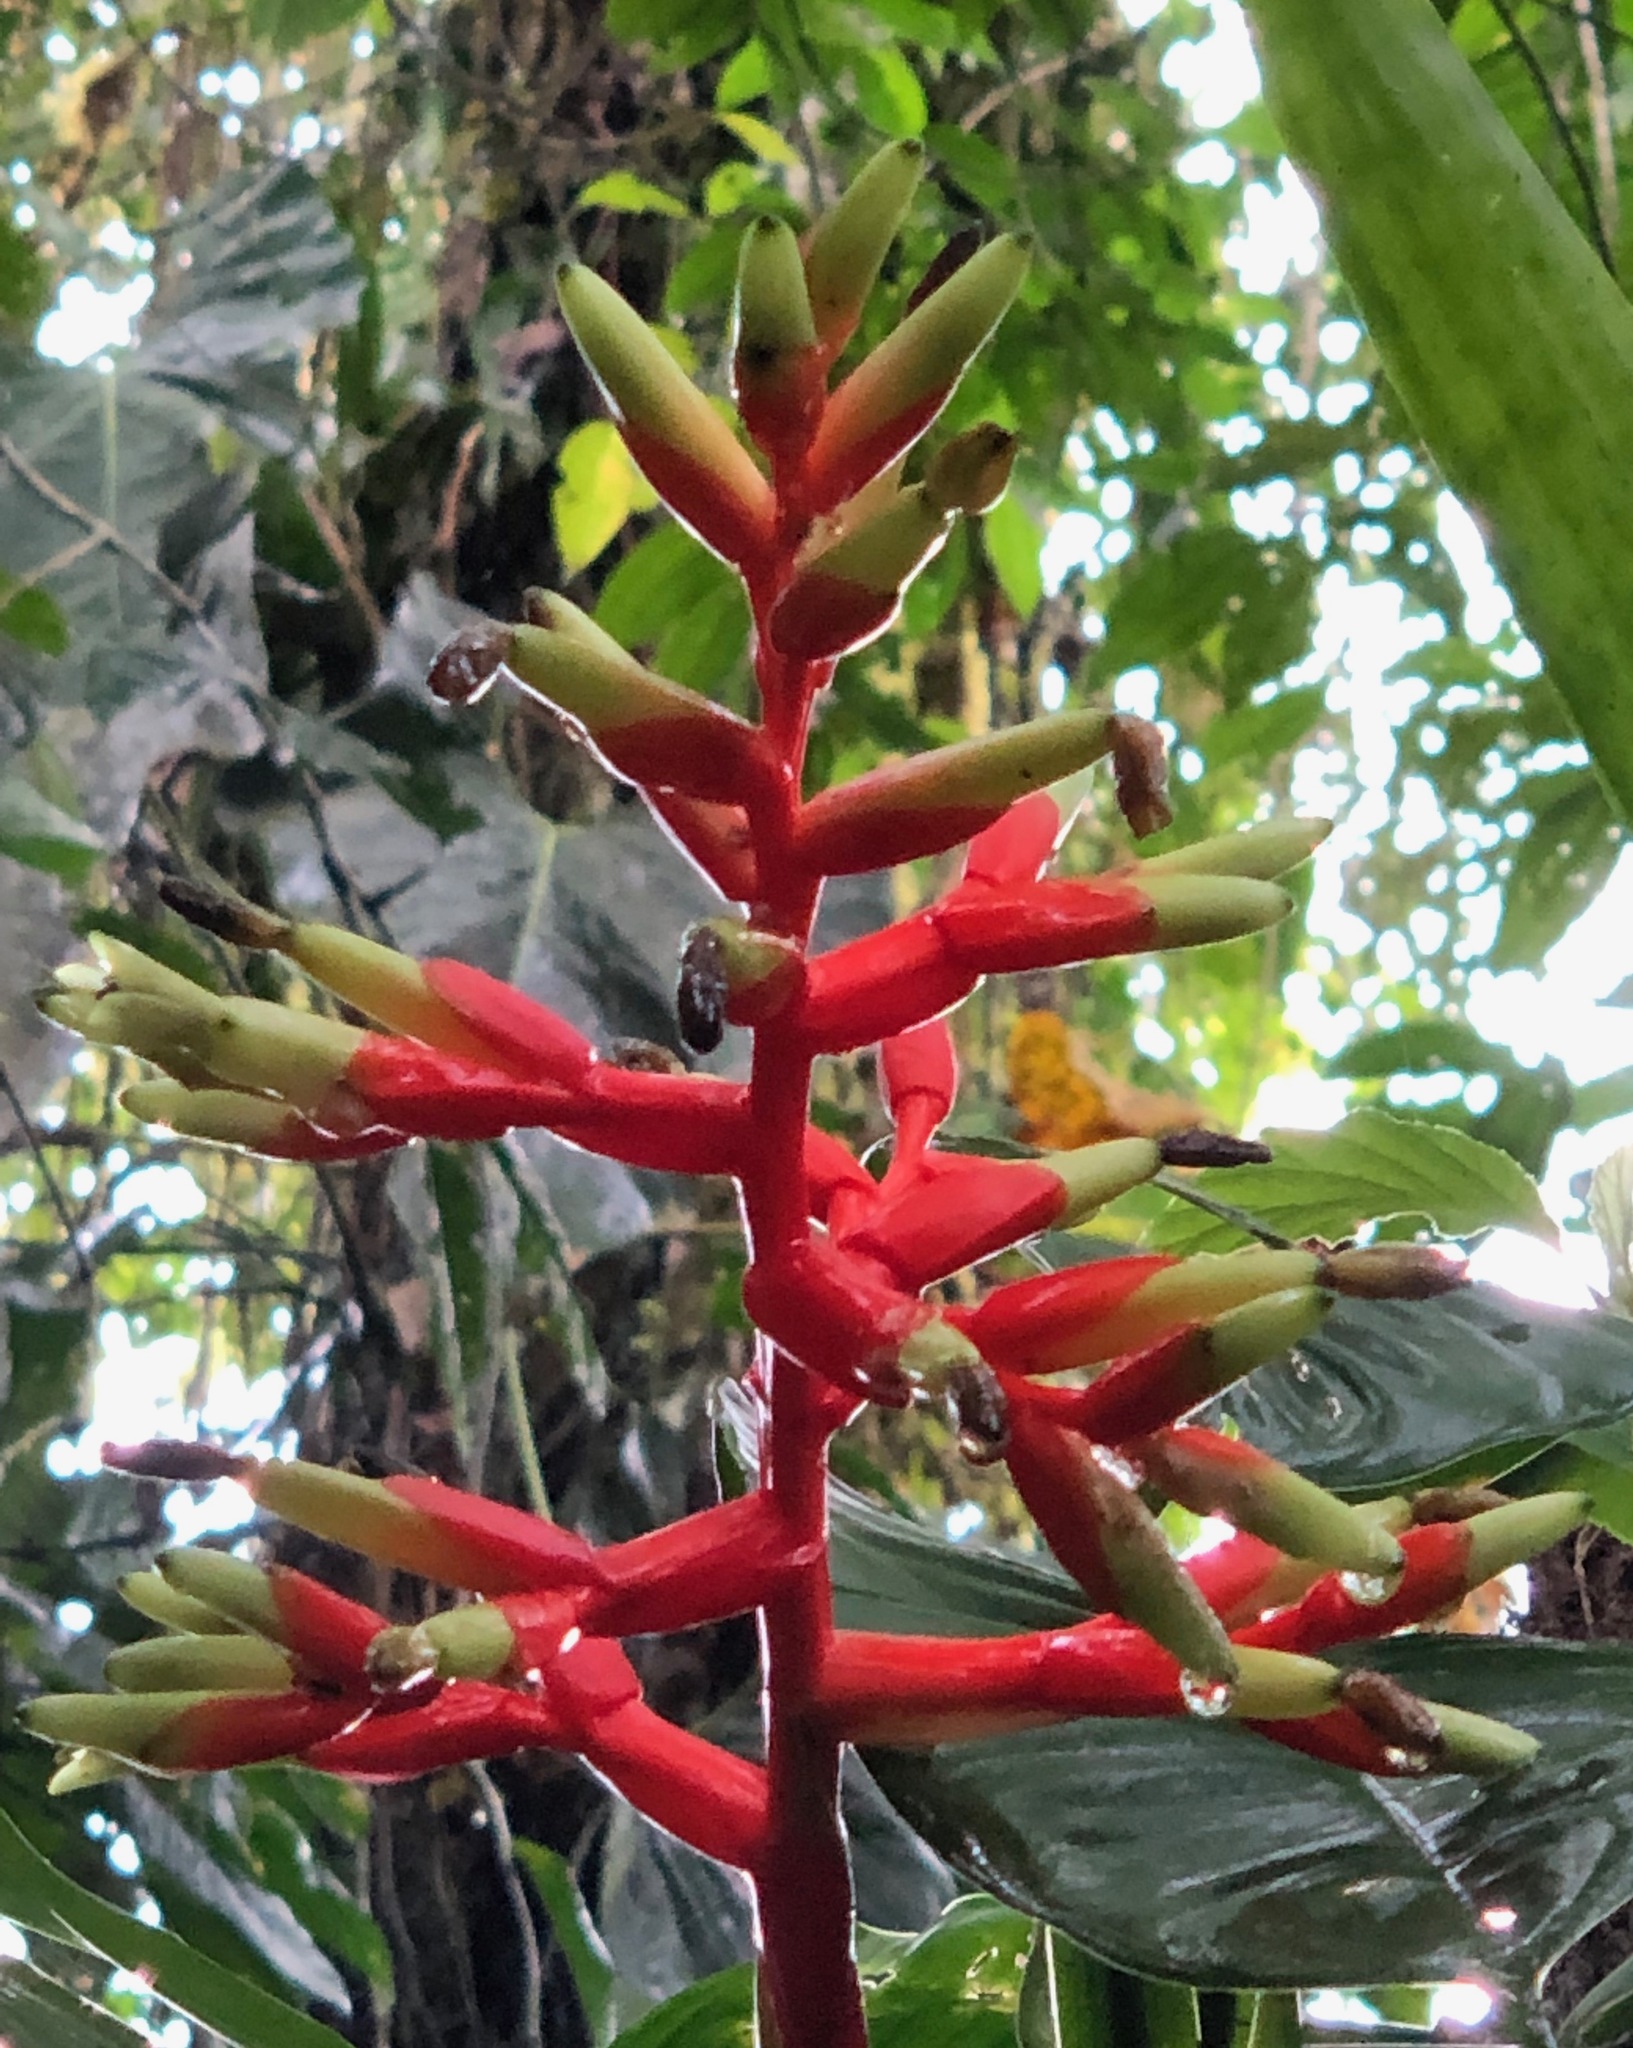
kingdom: Plantae
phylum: Tracheophyta
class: Liliopsida
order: Poales
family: Bromeliaceae
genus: Guzmania
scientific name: Guzmania scherzeriana
